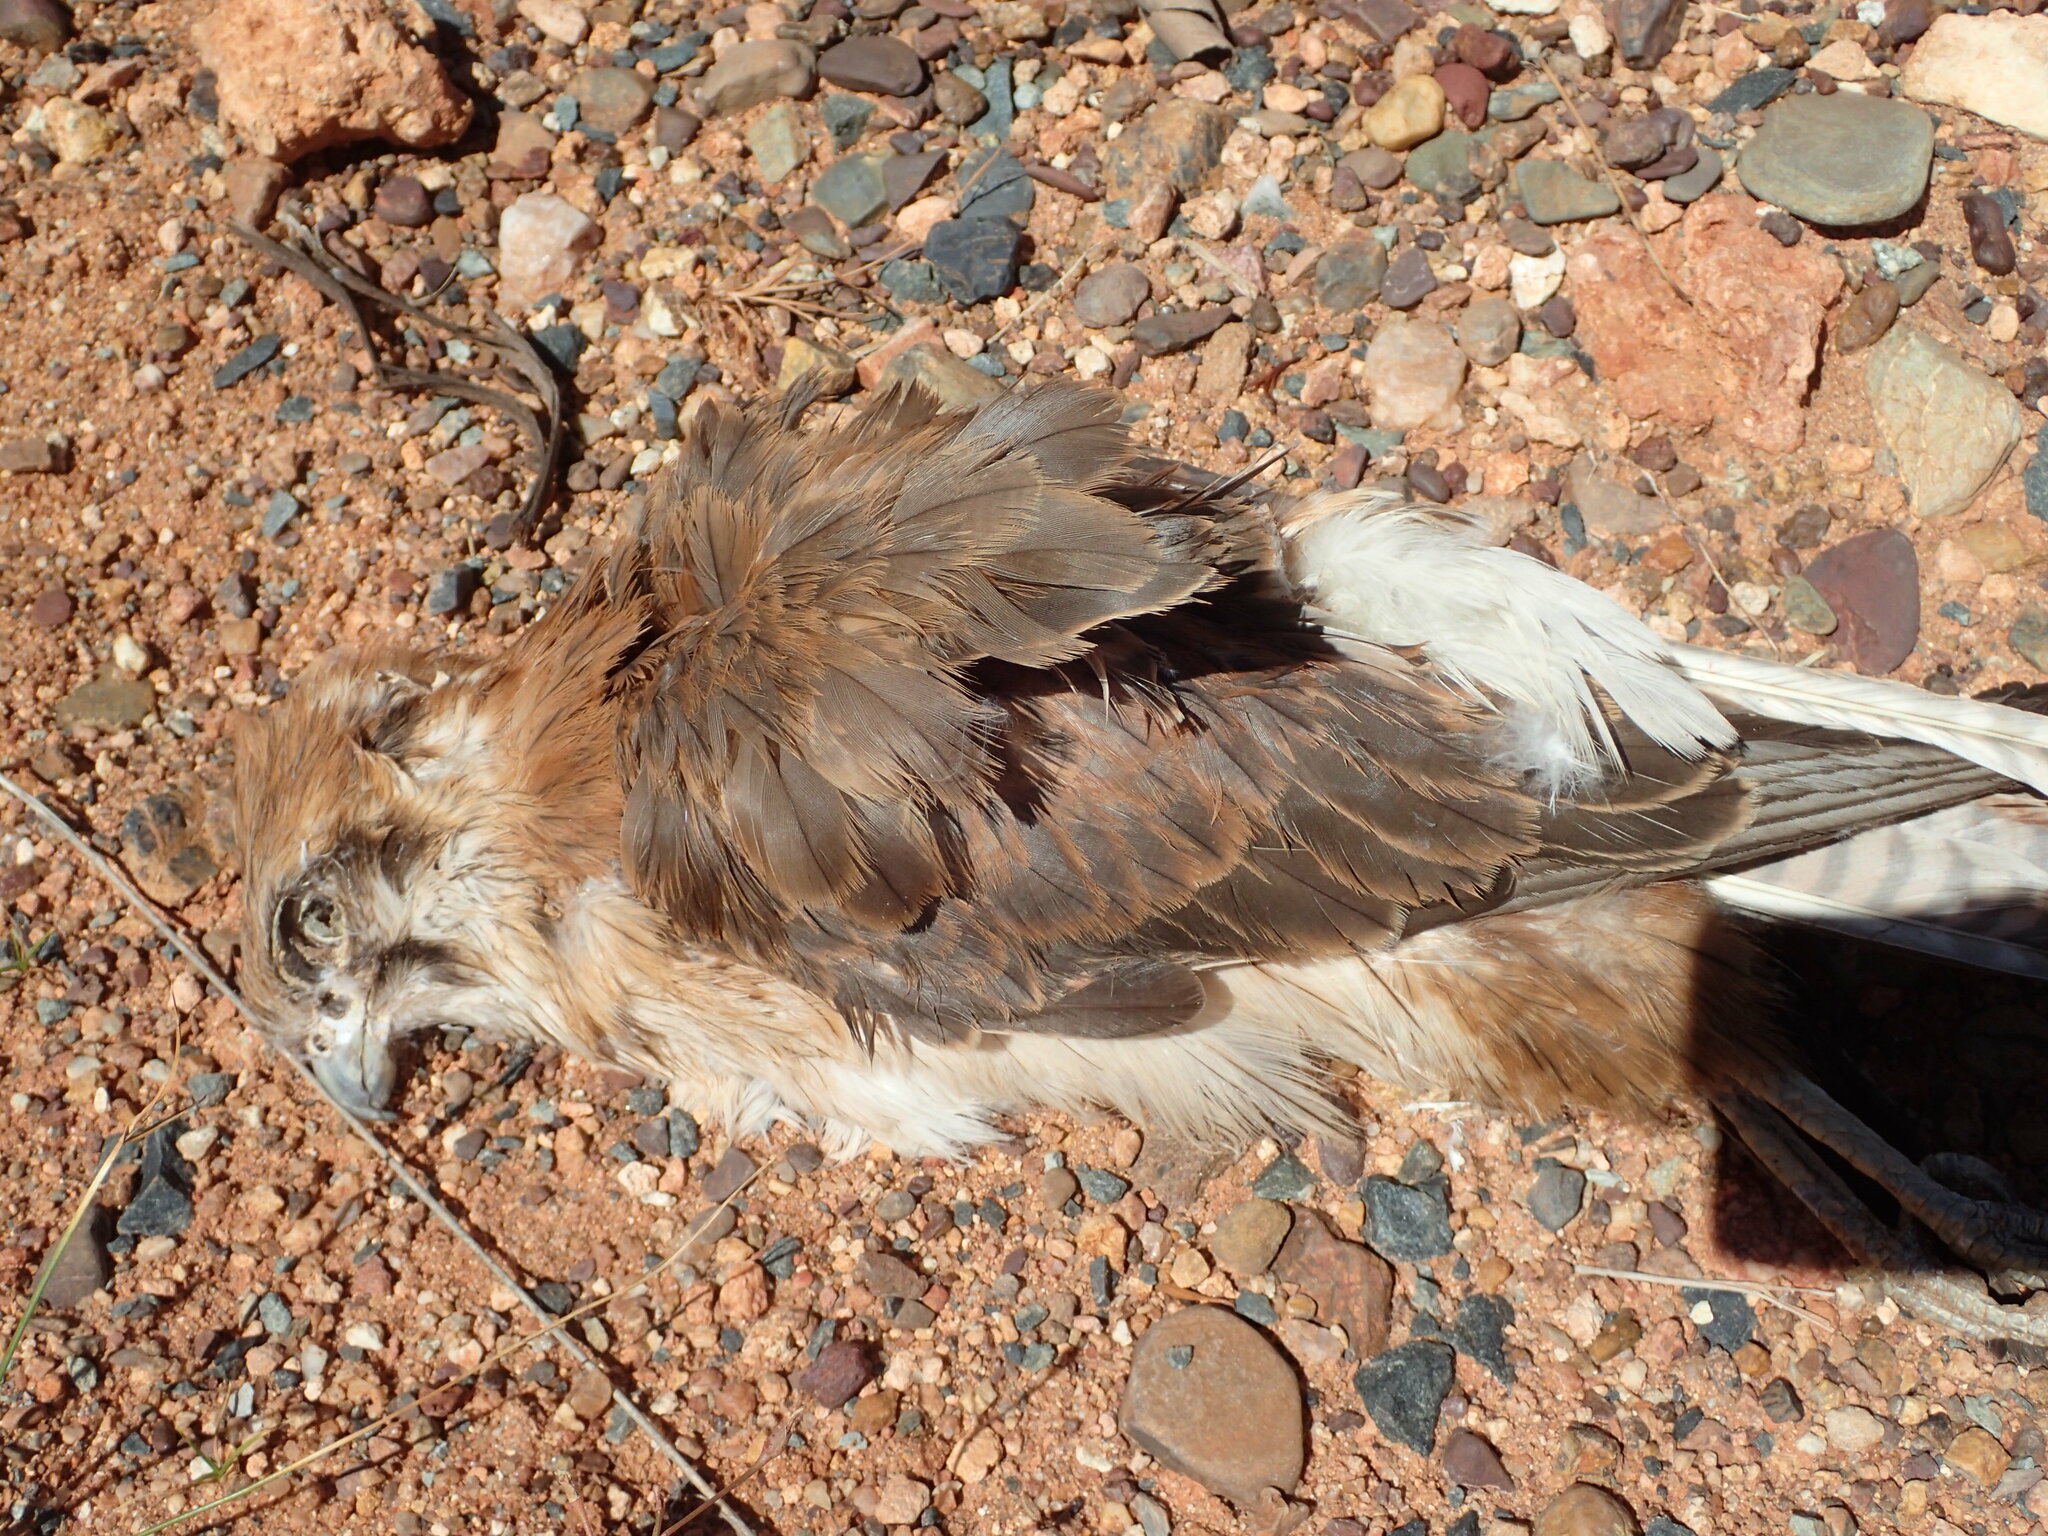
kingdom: Animalia
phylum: Chordata
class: Aves
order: Falconiformes
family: Falconidae
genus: Falco
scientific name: Falco berigora
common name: Brown falcon
